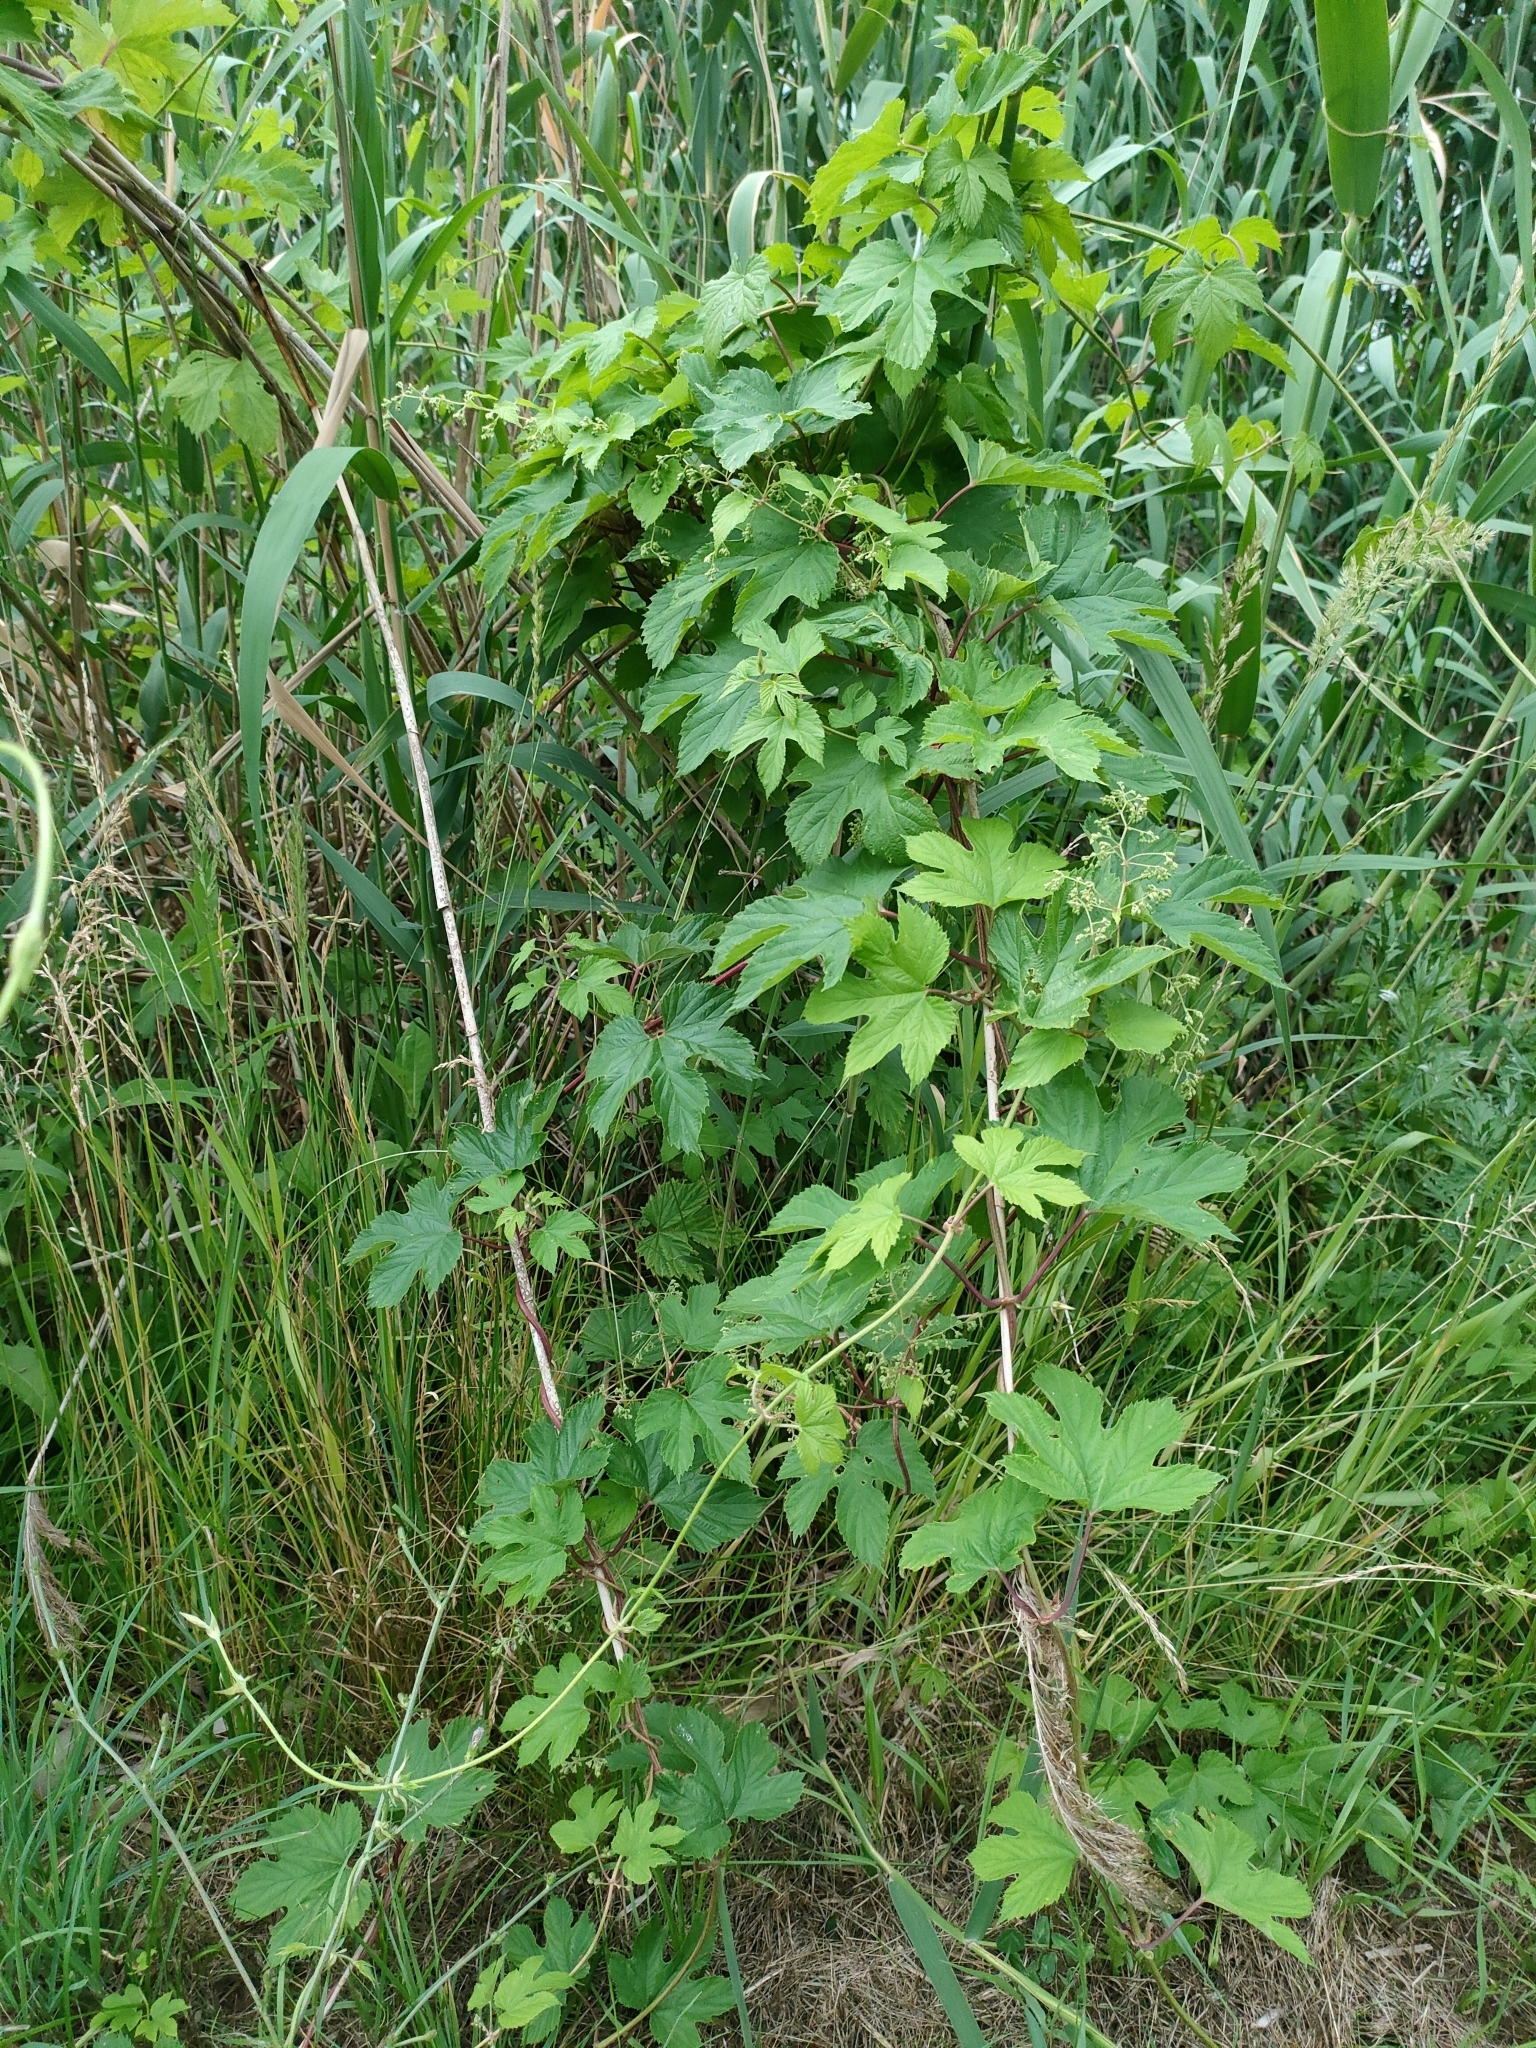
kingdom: Plantae
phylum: Tracheophyta
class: Magnoliopsida
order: Rosales
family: Cannabaceae
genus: Humulus
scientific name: Humulus lupulus
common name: Hop
